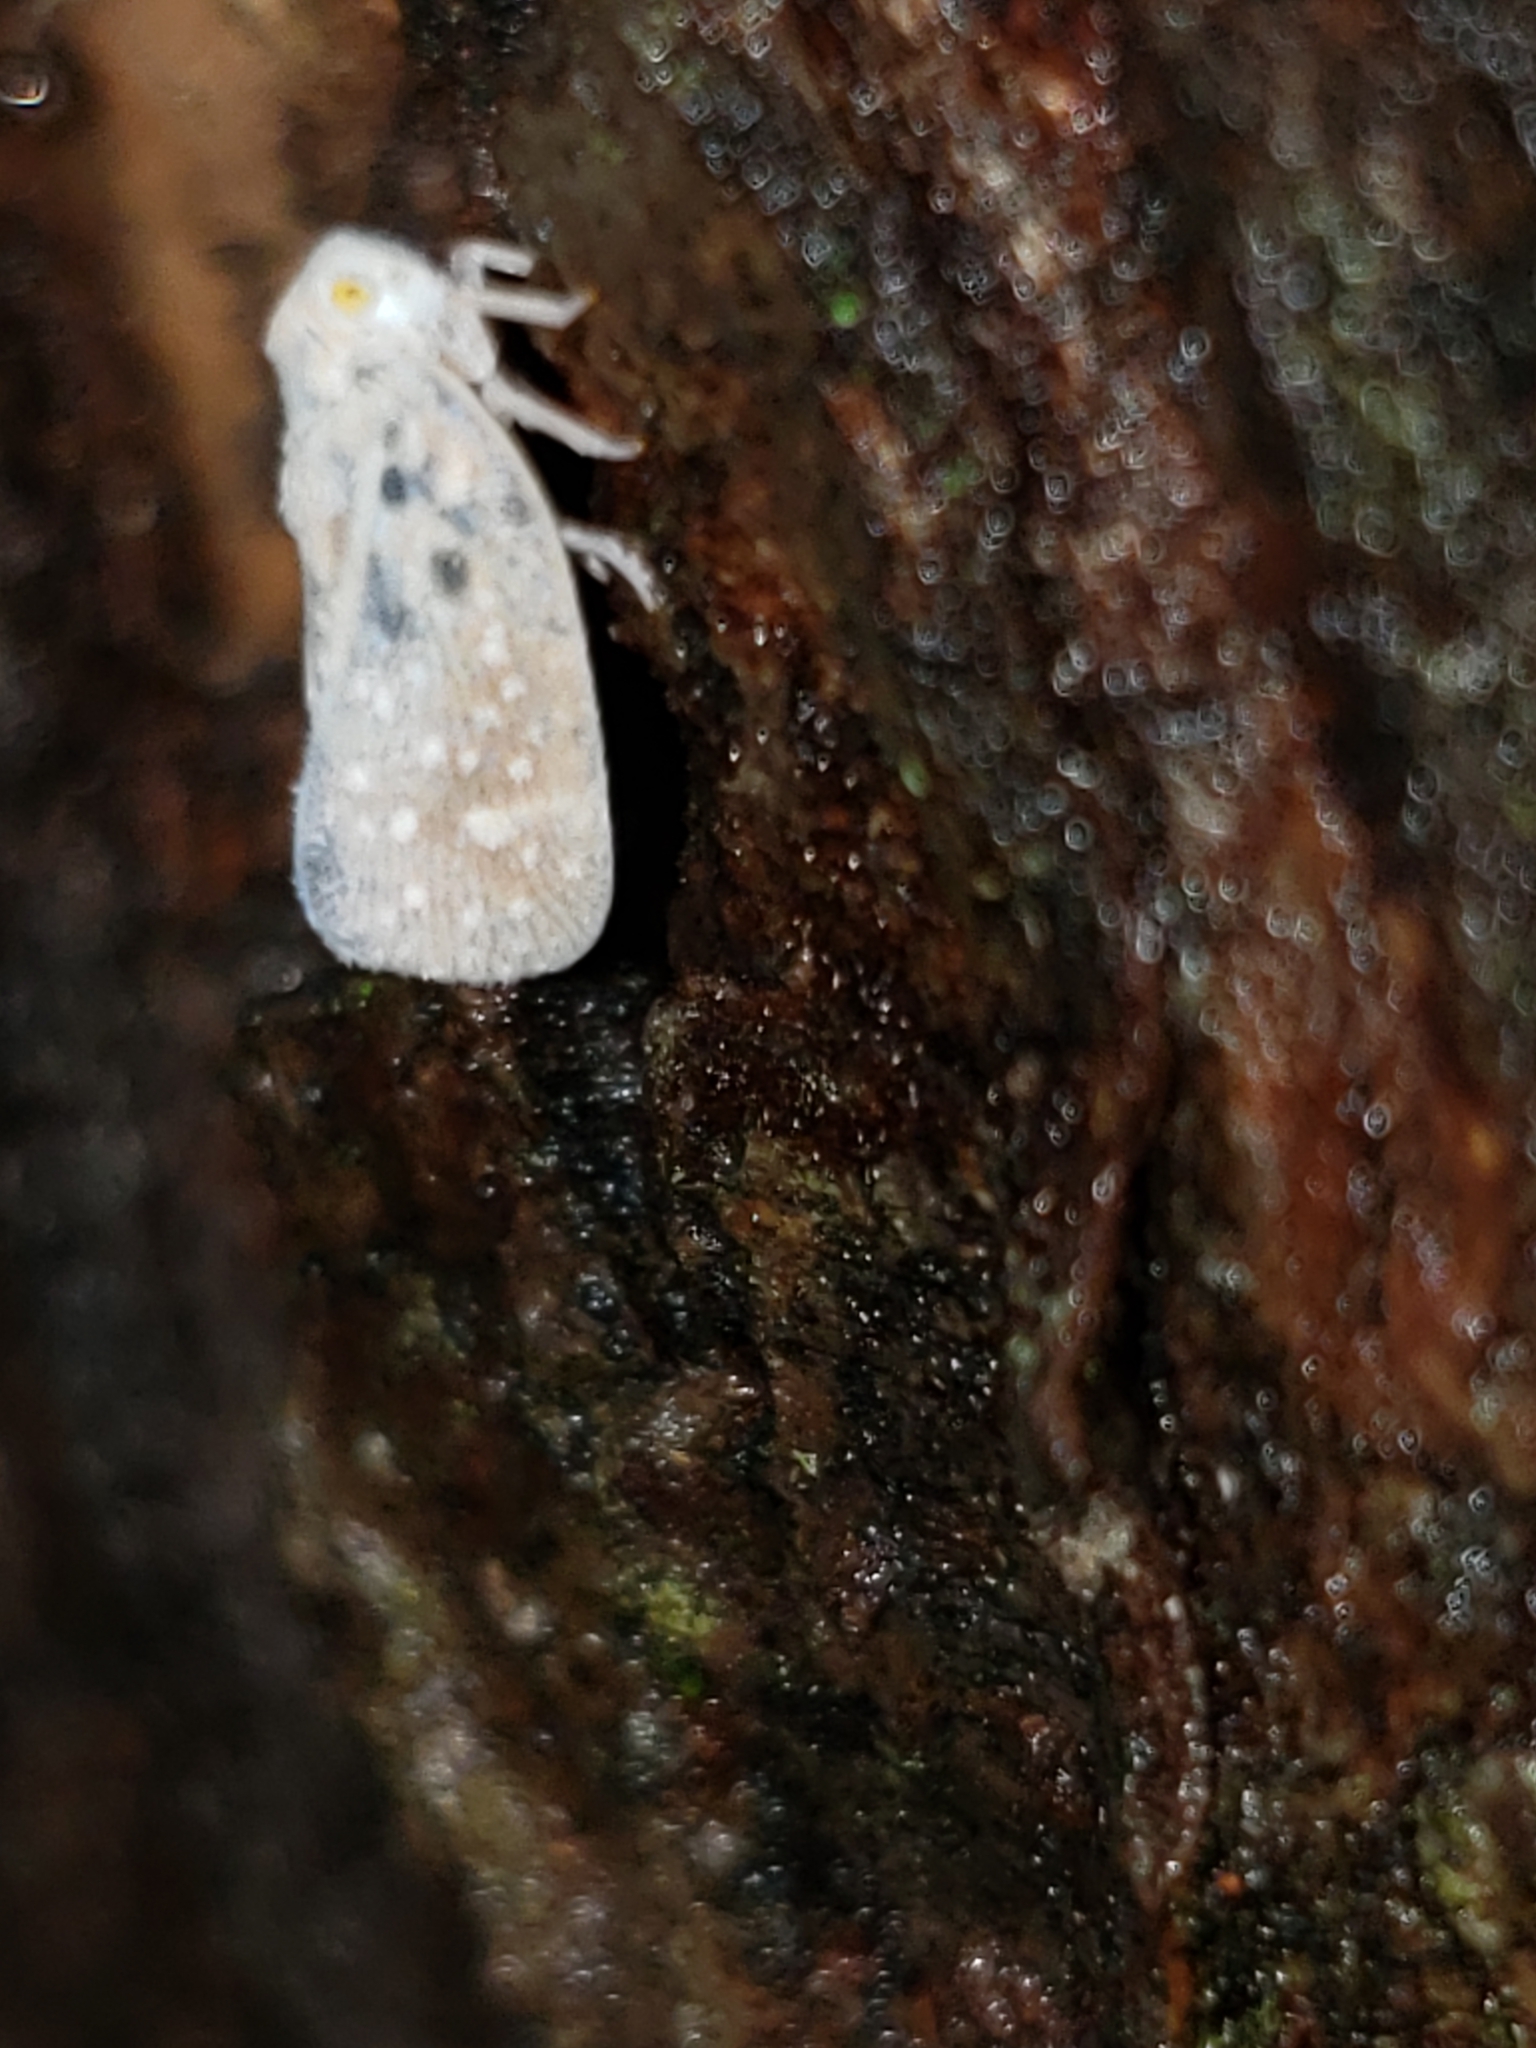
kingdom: Animalia
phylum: Arthropoda
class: Insecta
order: Hemiptera
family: Flatidae
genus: Metcalfa
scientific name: Metcalfa pruinosa
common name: Citrus flatid planthopper
